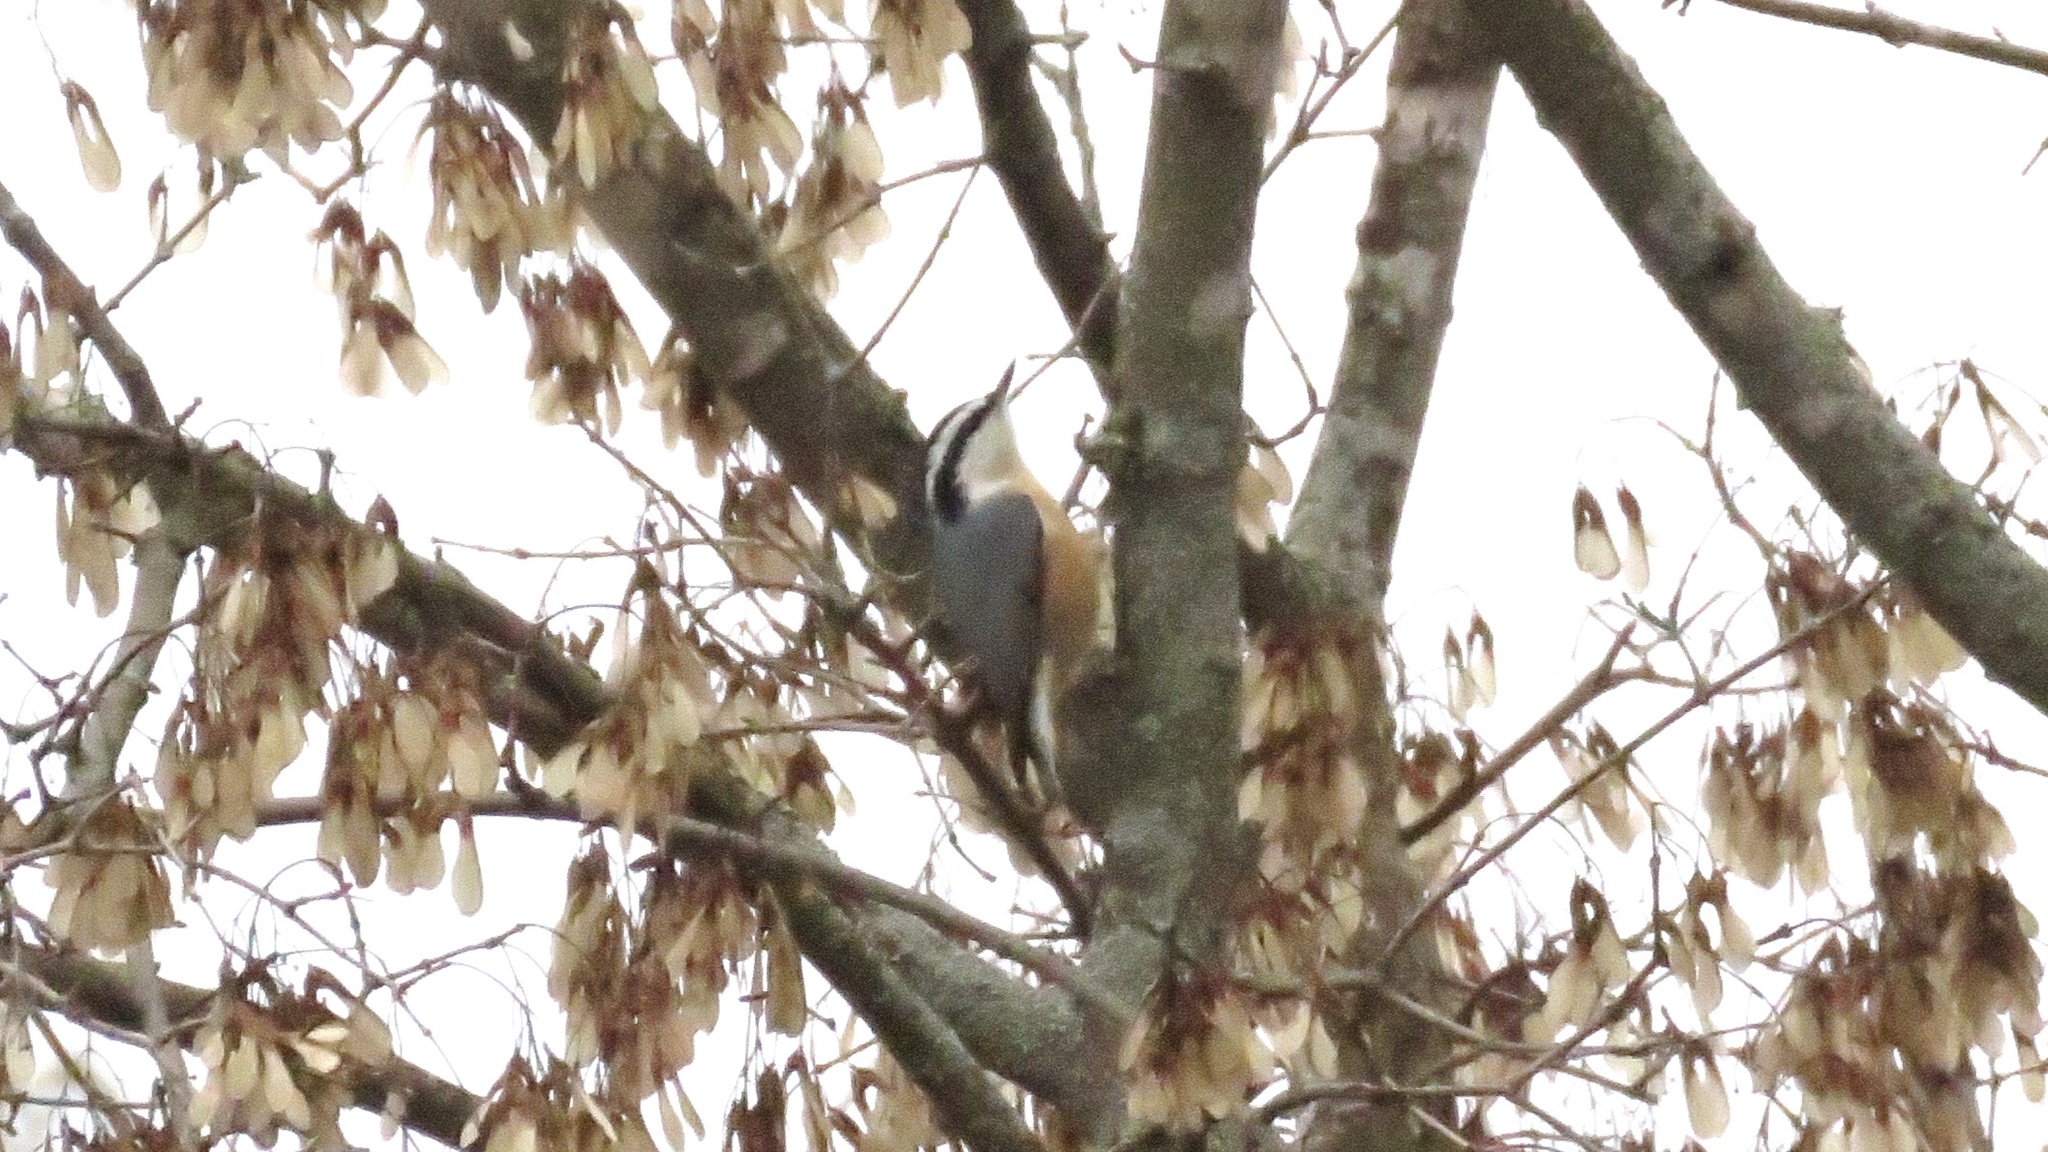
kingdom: Animalia
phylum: Chordata
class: Aves
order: Passeriformes
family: Sittidae
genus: Sitta
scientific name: Sitta canadensis
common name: Red-breasted nuthatch
